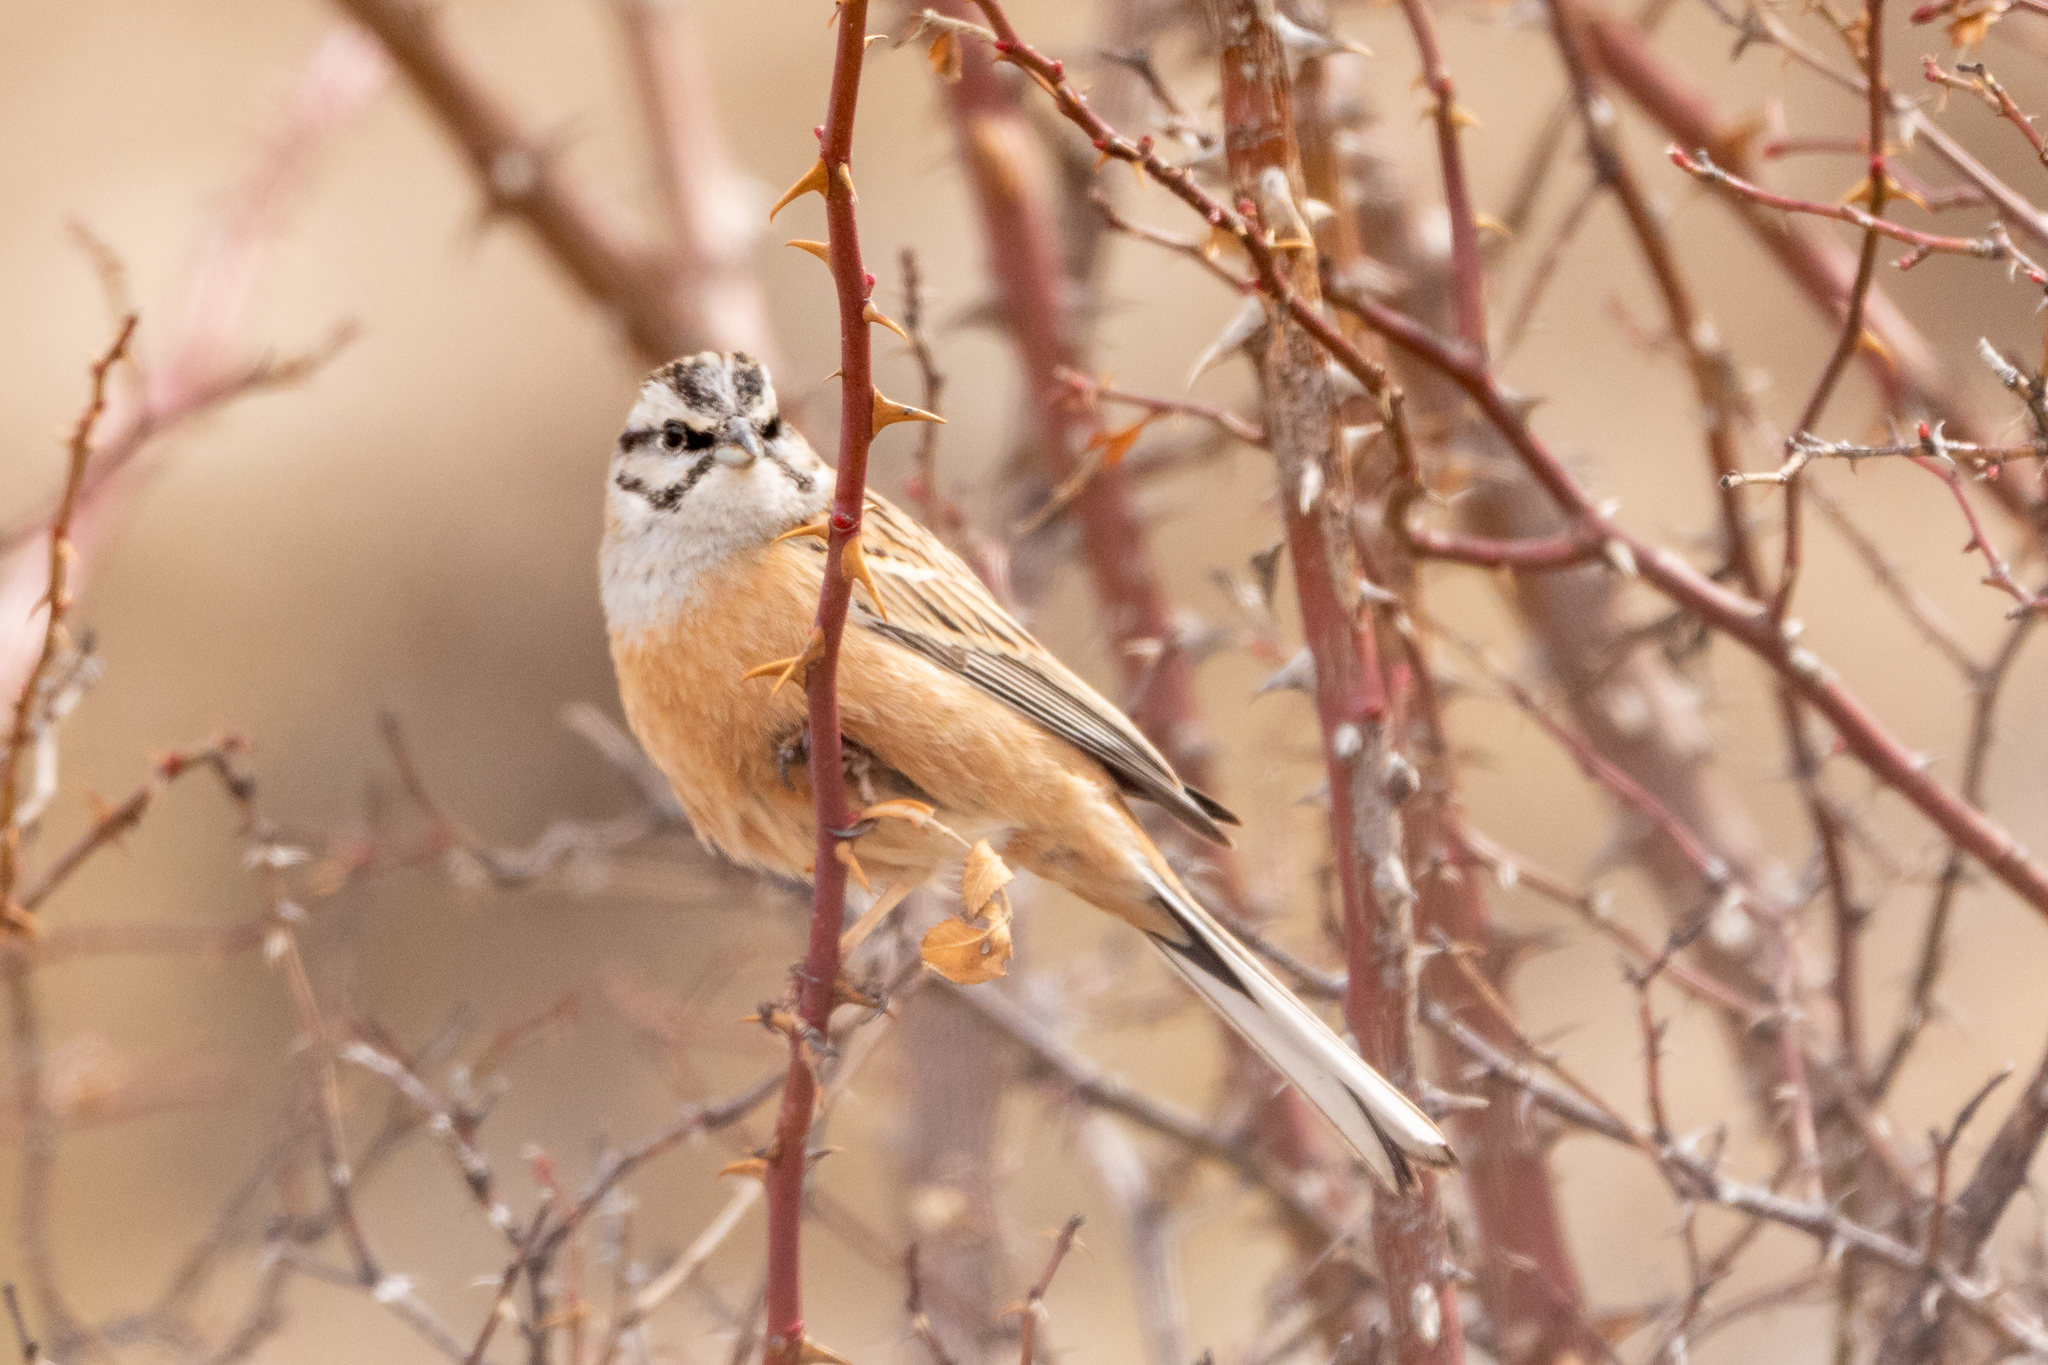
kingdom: Animalia
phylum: Chordata
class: Aves
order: Passeriformes
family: Emberizidae
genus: Emberiza
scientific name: Emberiza cia
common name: Rock bunting
